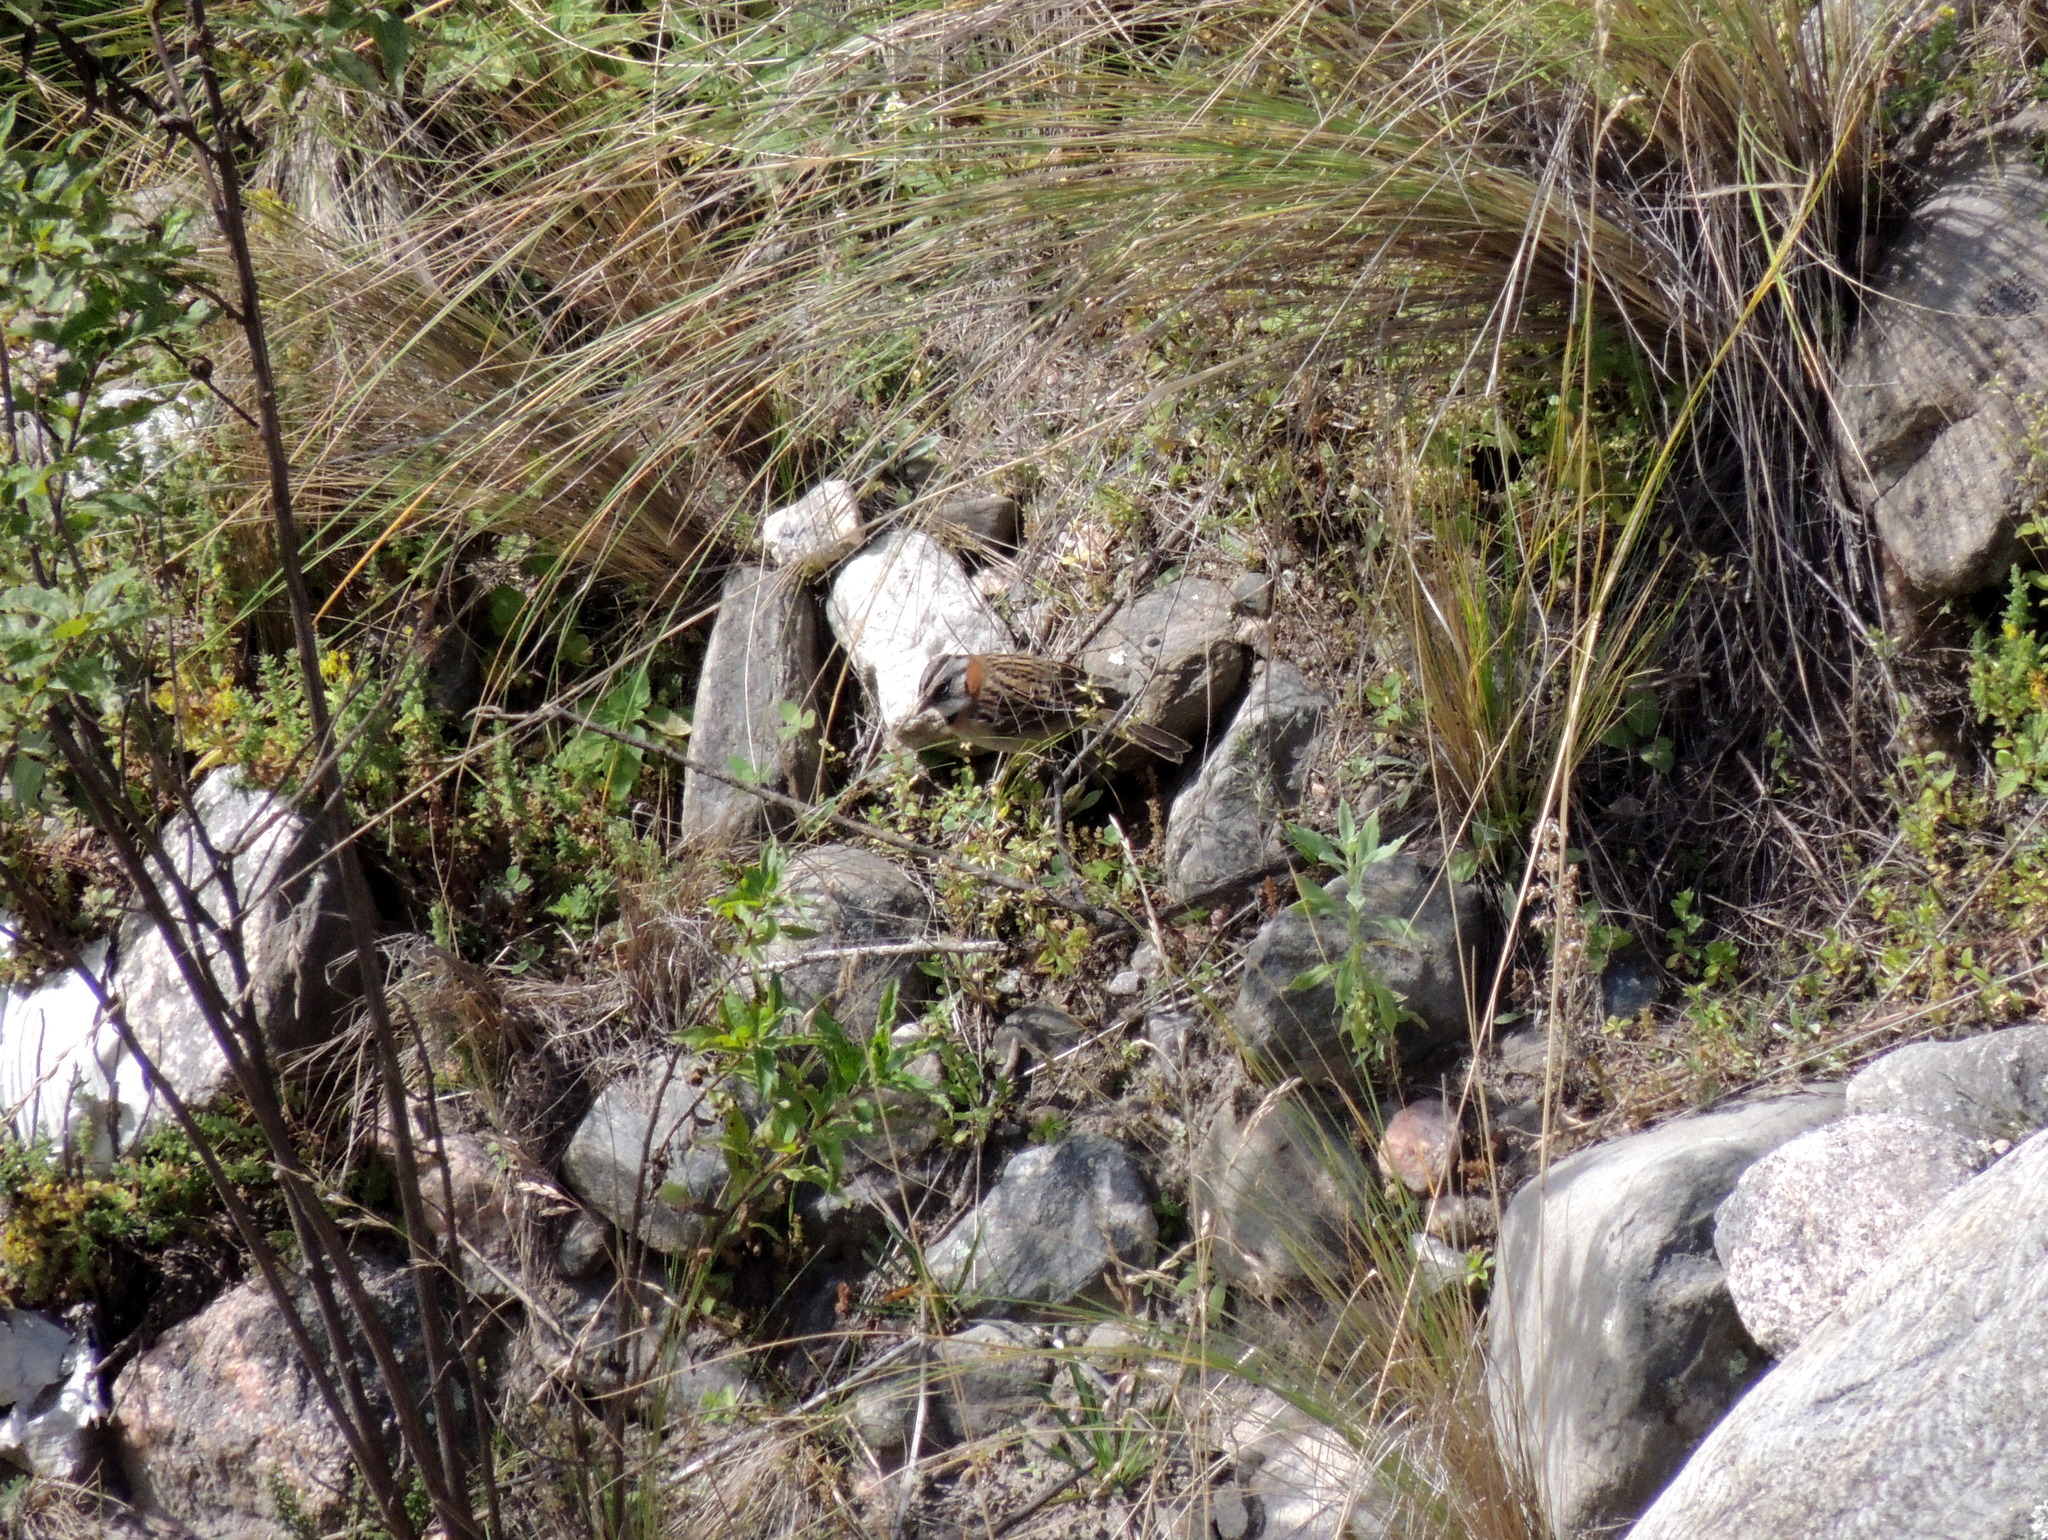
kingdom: Animalia
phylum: Chordata
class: Aves
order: Passeriformes
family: Passerellidae
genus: Zonotrichia
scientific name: Zonotrichia capensis
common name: Rufous-collared sparrow
